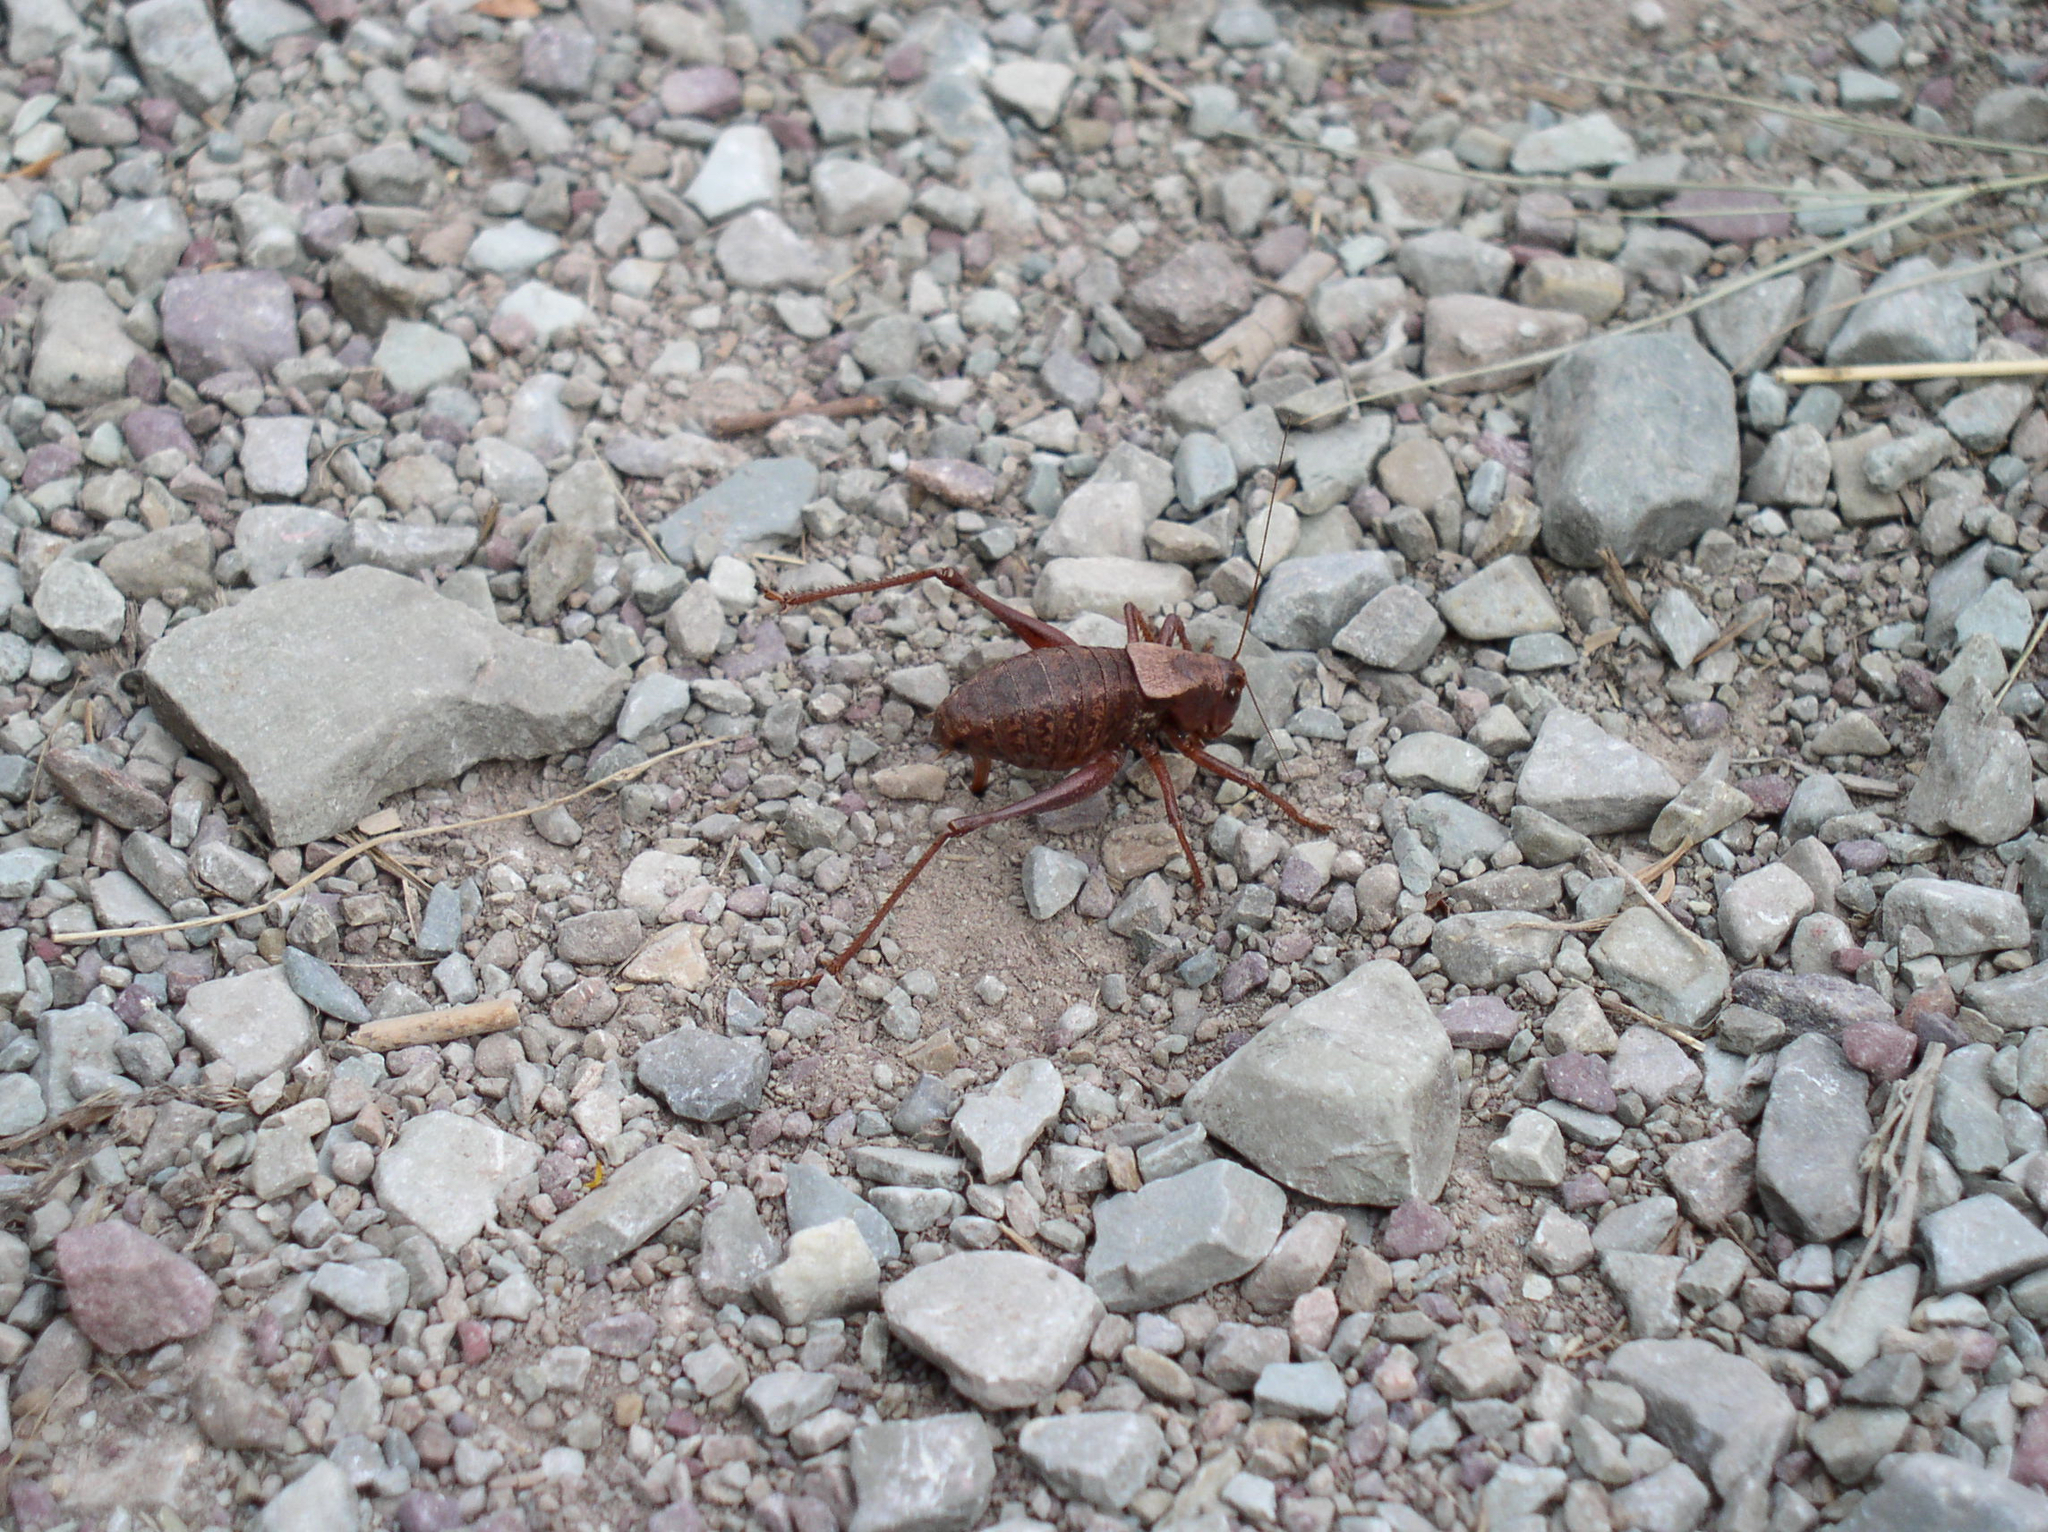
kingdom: Animalia
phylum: Arthropoda
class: Insecta
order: Orthoptera
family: Tettigoniidae
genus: Anabrus
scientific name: Anabrus simplex
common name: Mormon cricket
